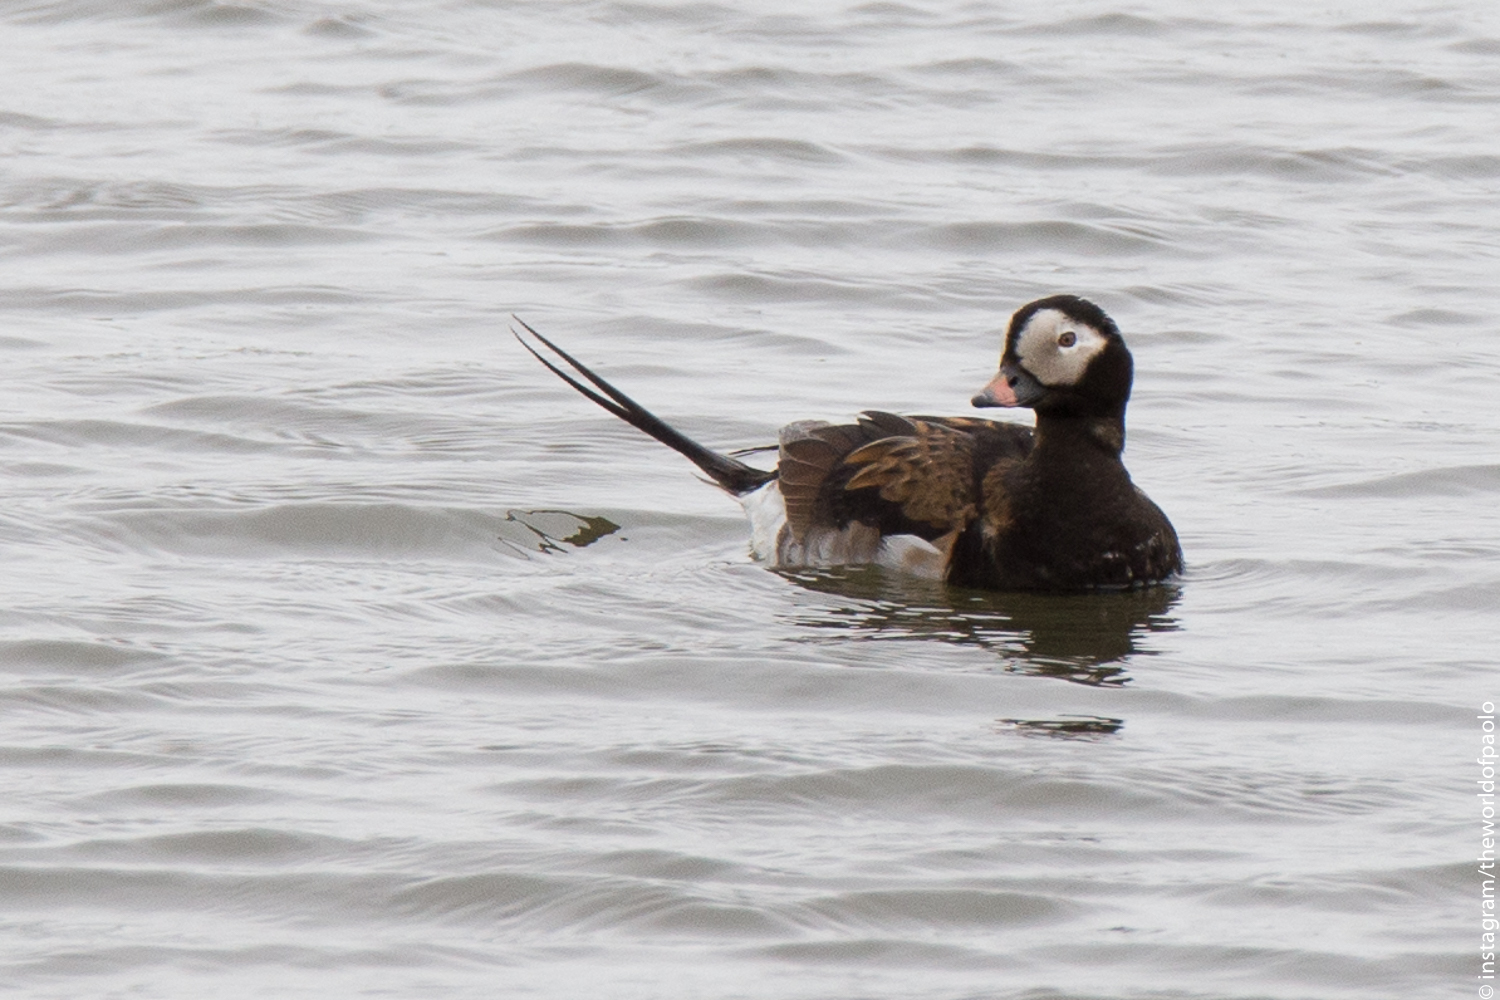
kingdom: Animalia
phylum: Chordata
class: Aves
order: Anseriformes
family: Anatidae
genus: Clangula
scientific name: Clangula hyemalis
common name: Long-tailed duck
